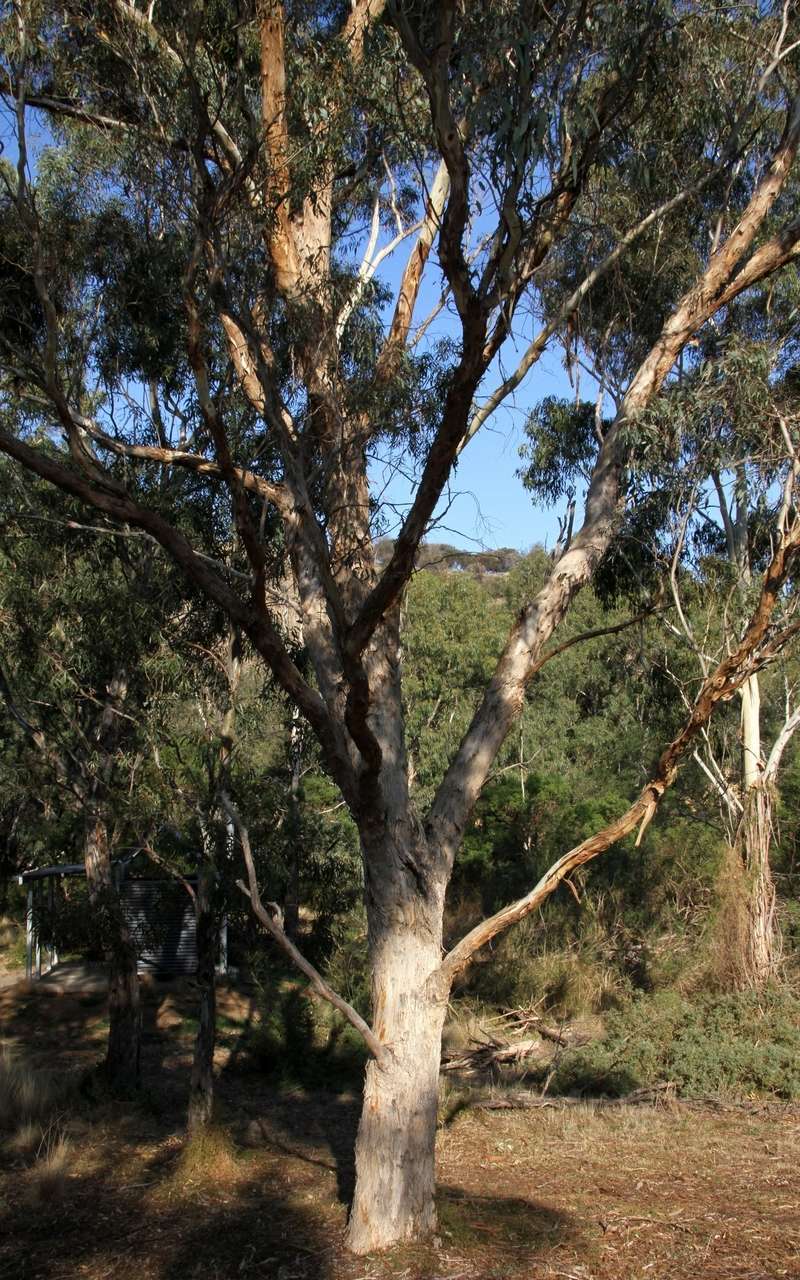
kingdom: Plantae
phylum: Tracheophyta
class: Magnoliopsida
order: Myrtales
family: Myrtaceae
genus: Eucalyptus
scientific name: Eucalyptus melliodora
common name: Yellow ironbox
